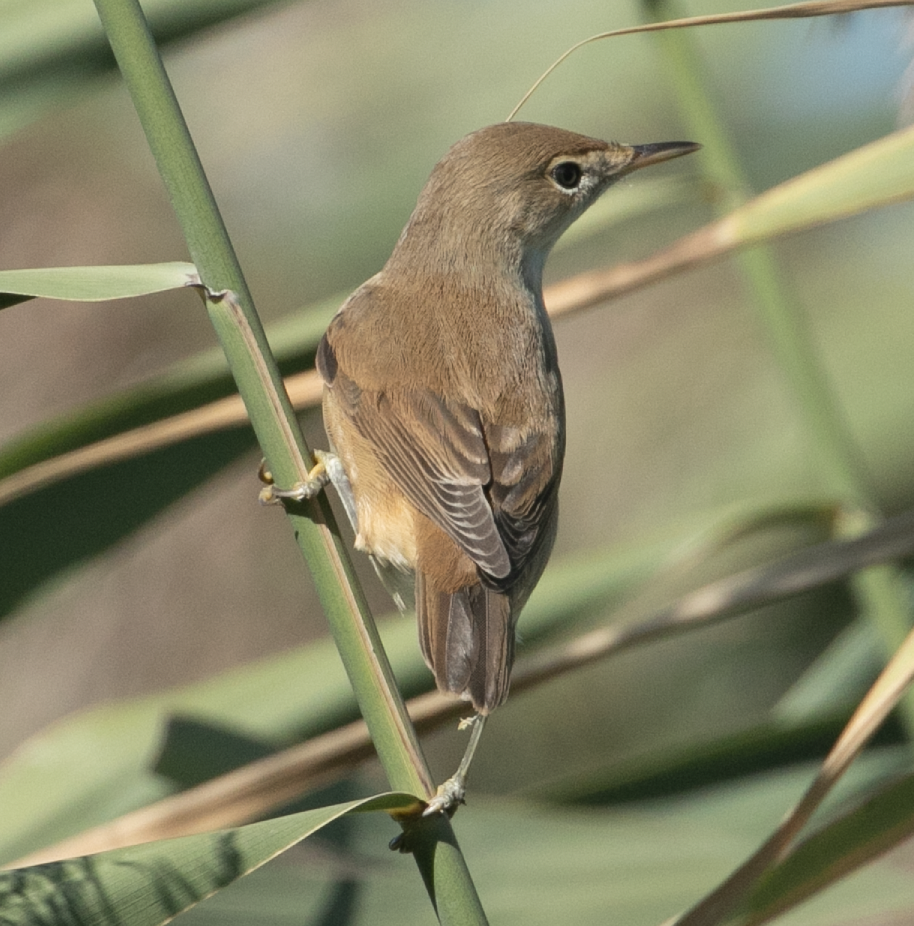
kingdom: Animalia
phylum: Chordata
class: Aves
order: Passeriformes
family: Acrocephalidae
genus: Acrocephalus
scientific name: Acrocephalus scirpaceus
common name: Eurasian reed warbler
